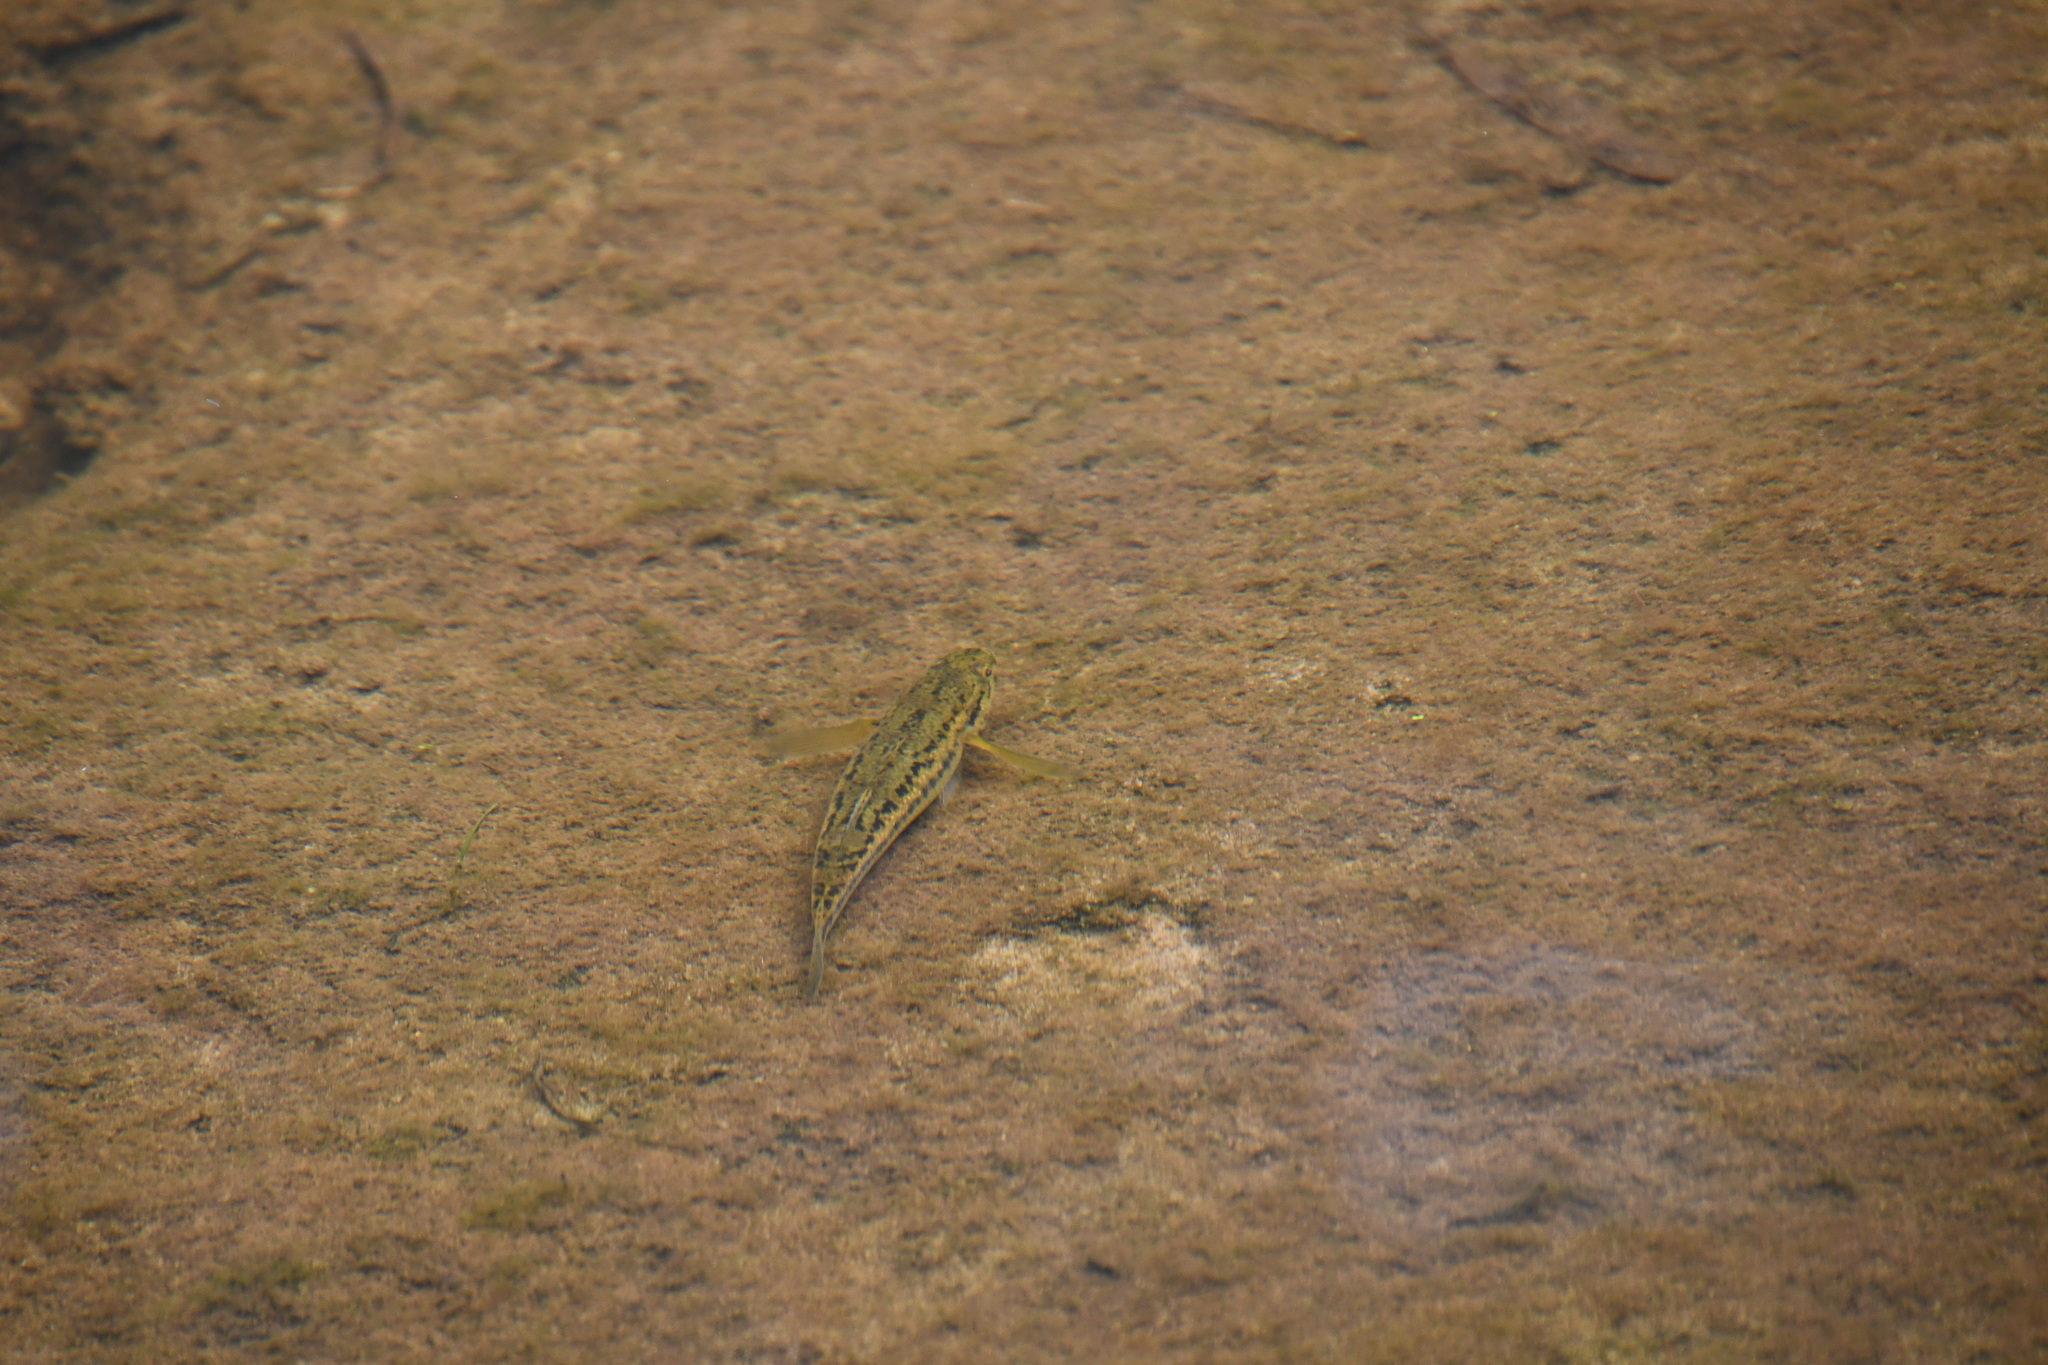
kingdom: Animalia
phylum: Chordata
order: Perciformes
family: Eleotridae
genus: Gobiomorphus
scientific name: Gobiomorphus coxii
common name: Cox's gudgeon
